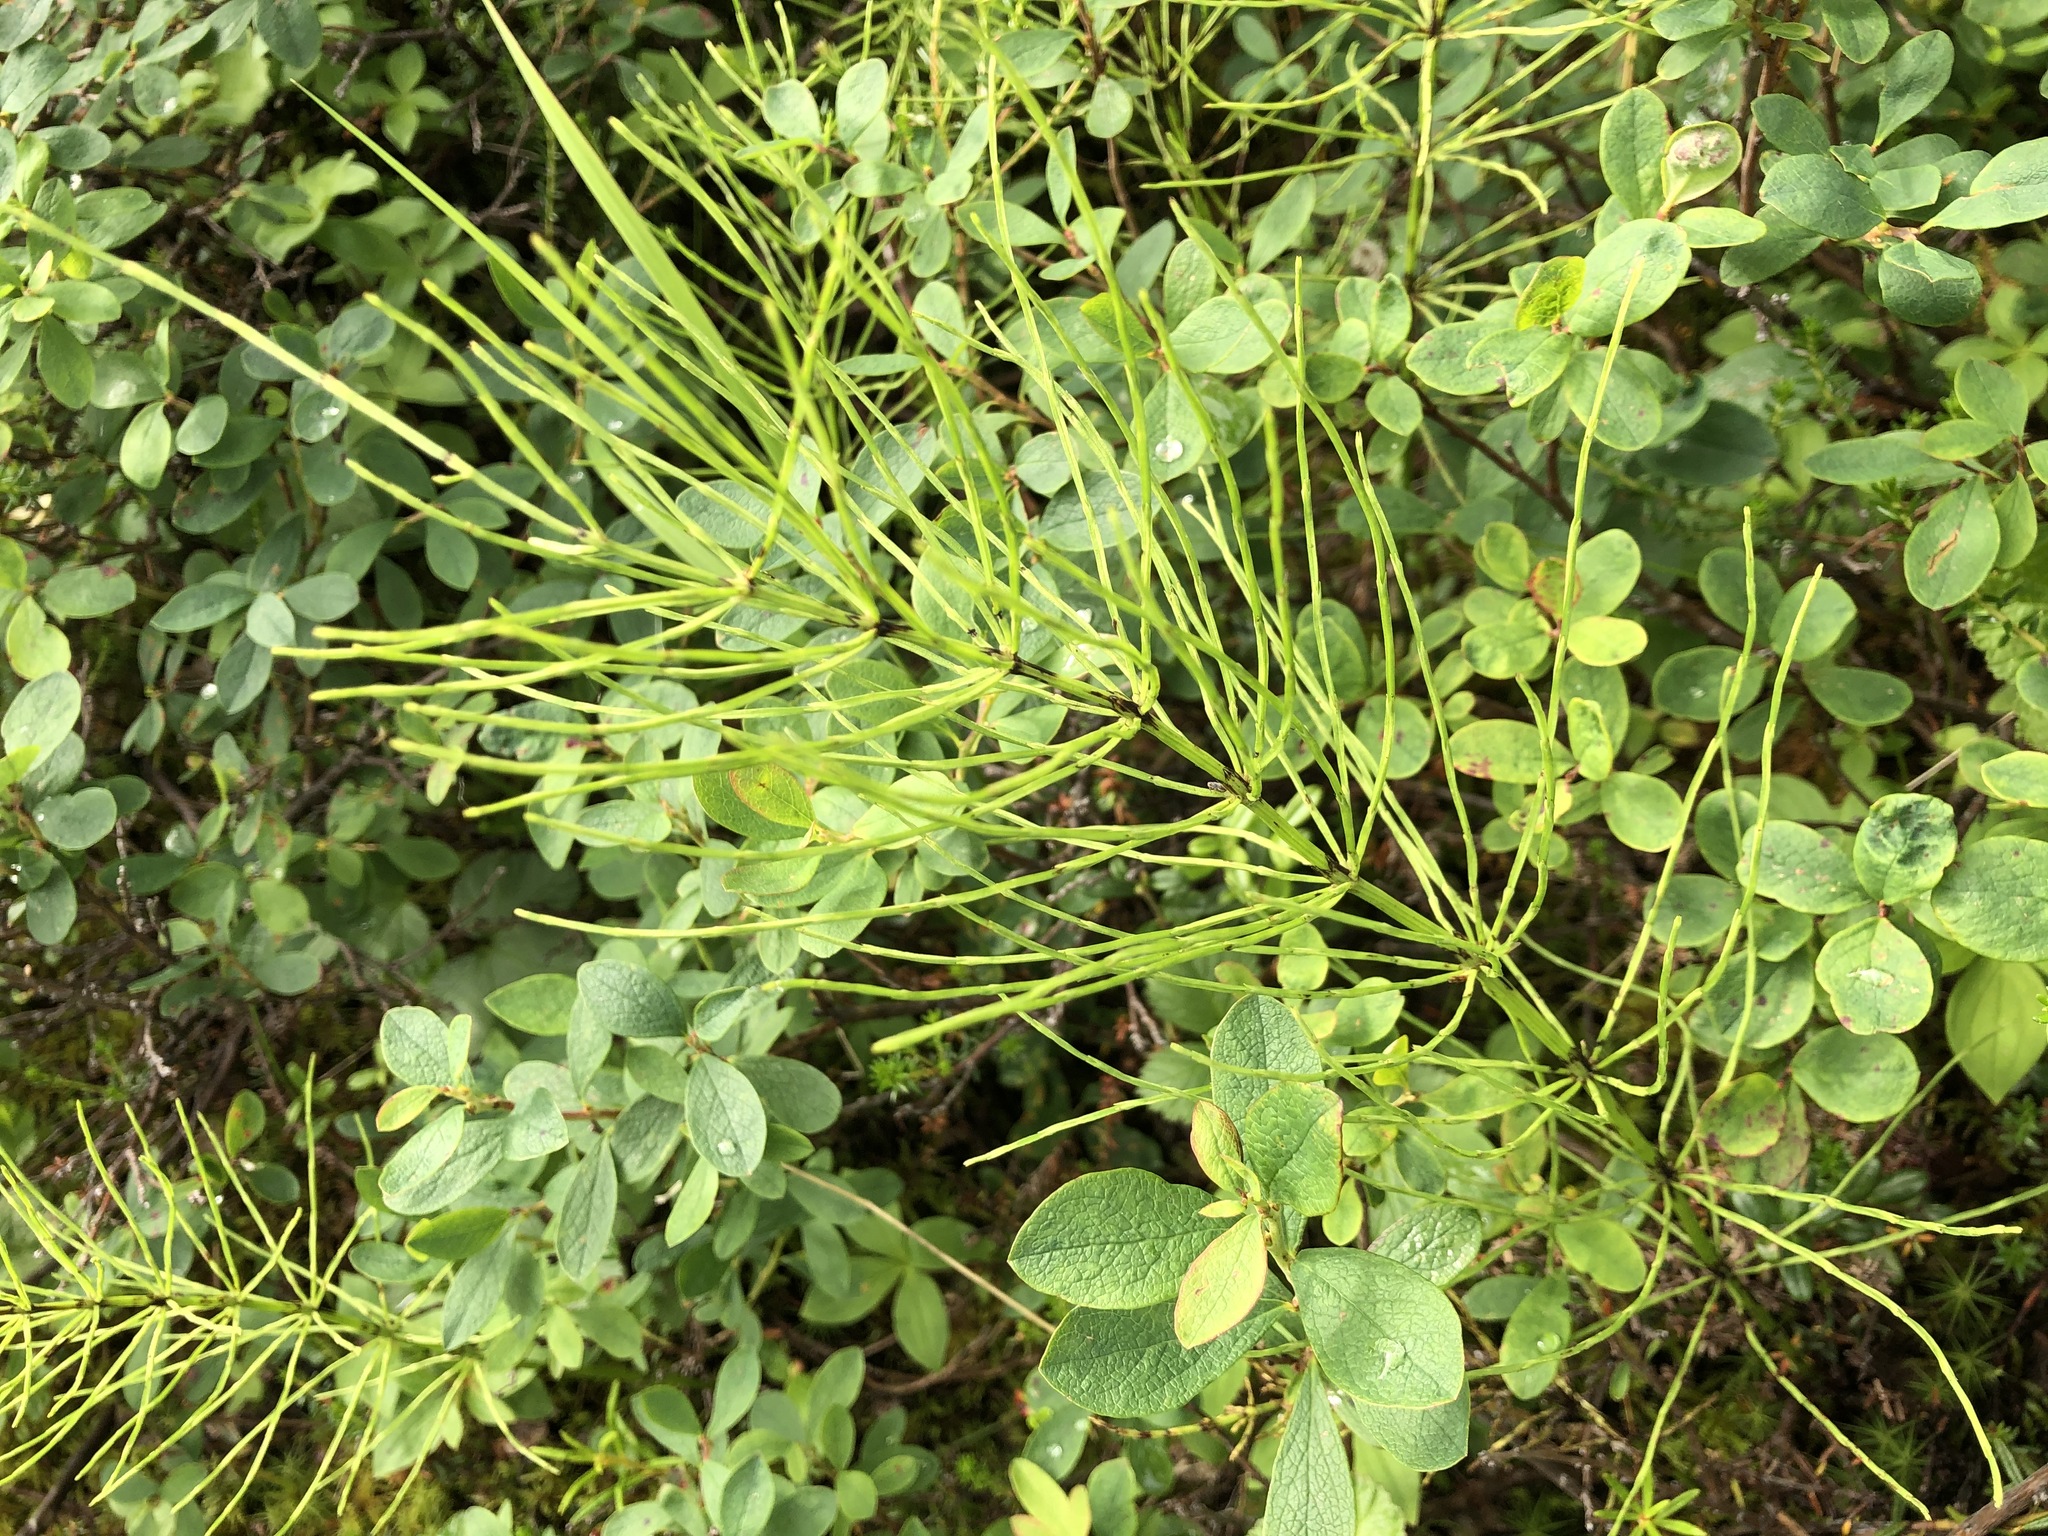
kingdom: Plantae
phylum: Tracheophyta
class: Polypodiopsida
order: Equisetales
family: Equisetaceae
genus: Equisetum
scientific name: Equisetum arvense
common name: Field horsetail
